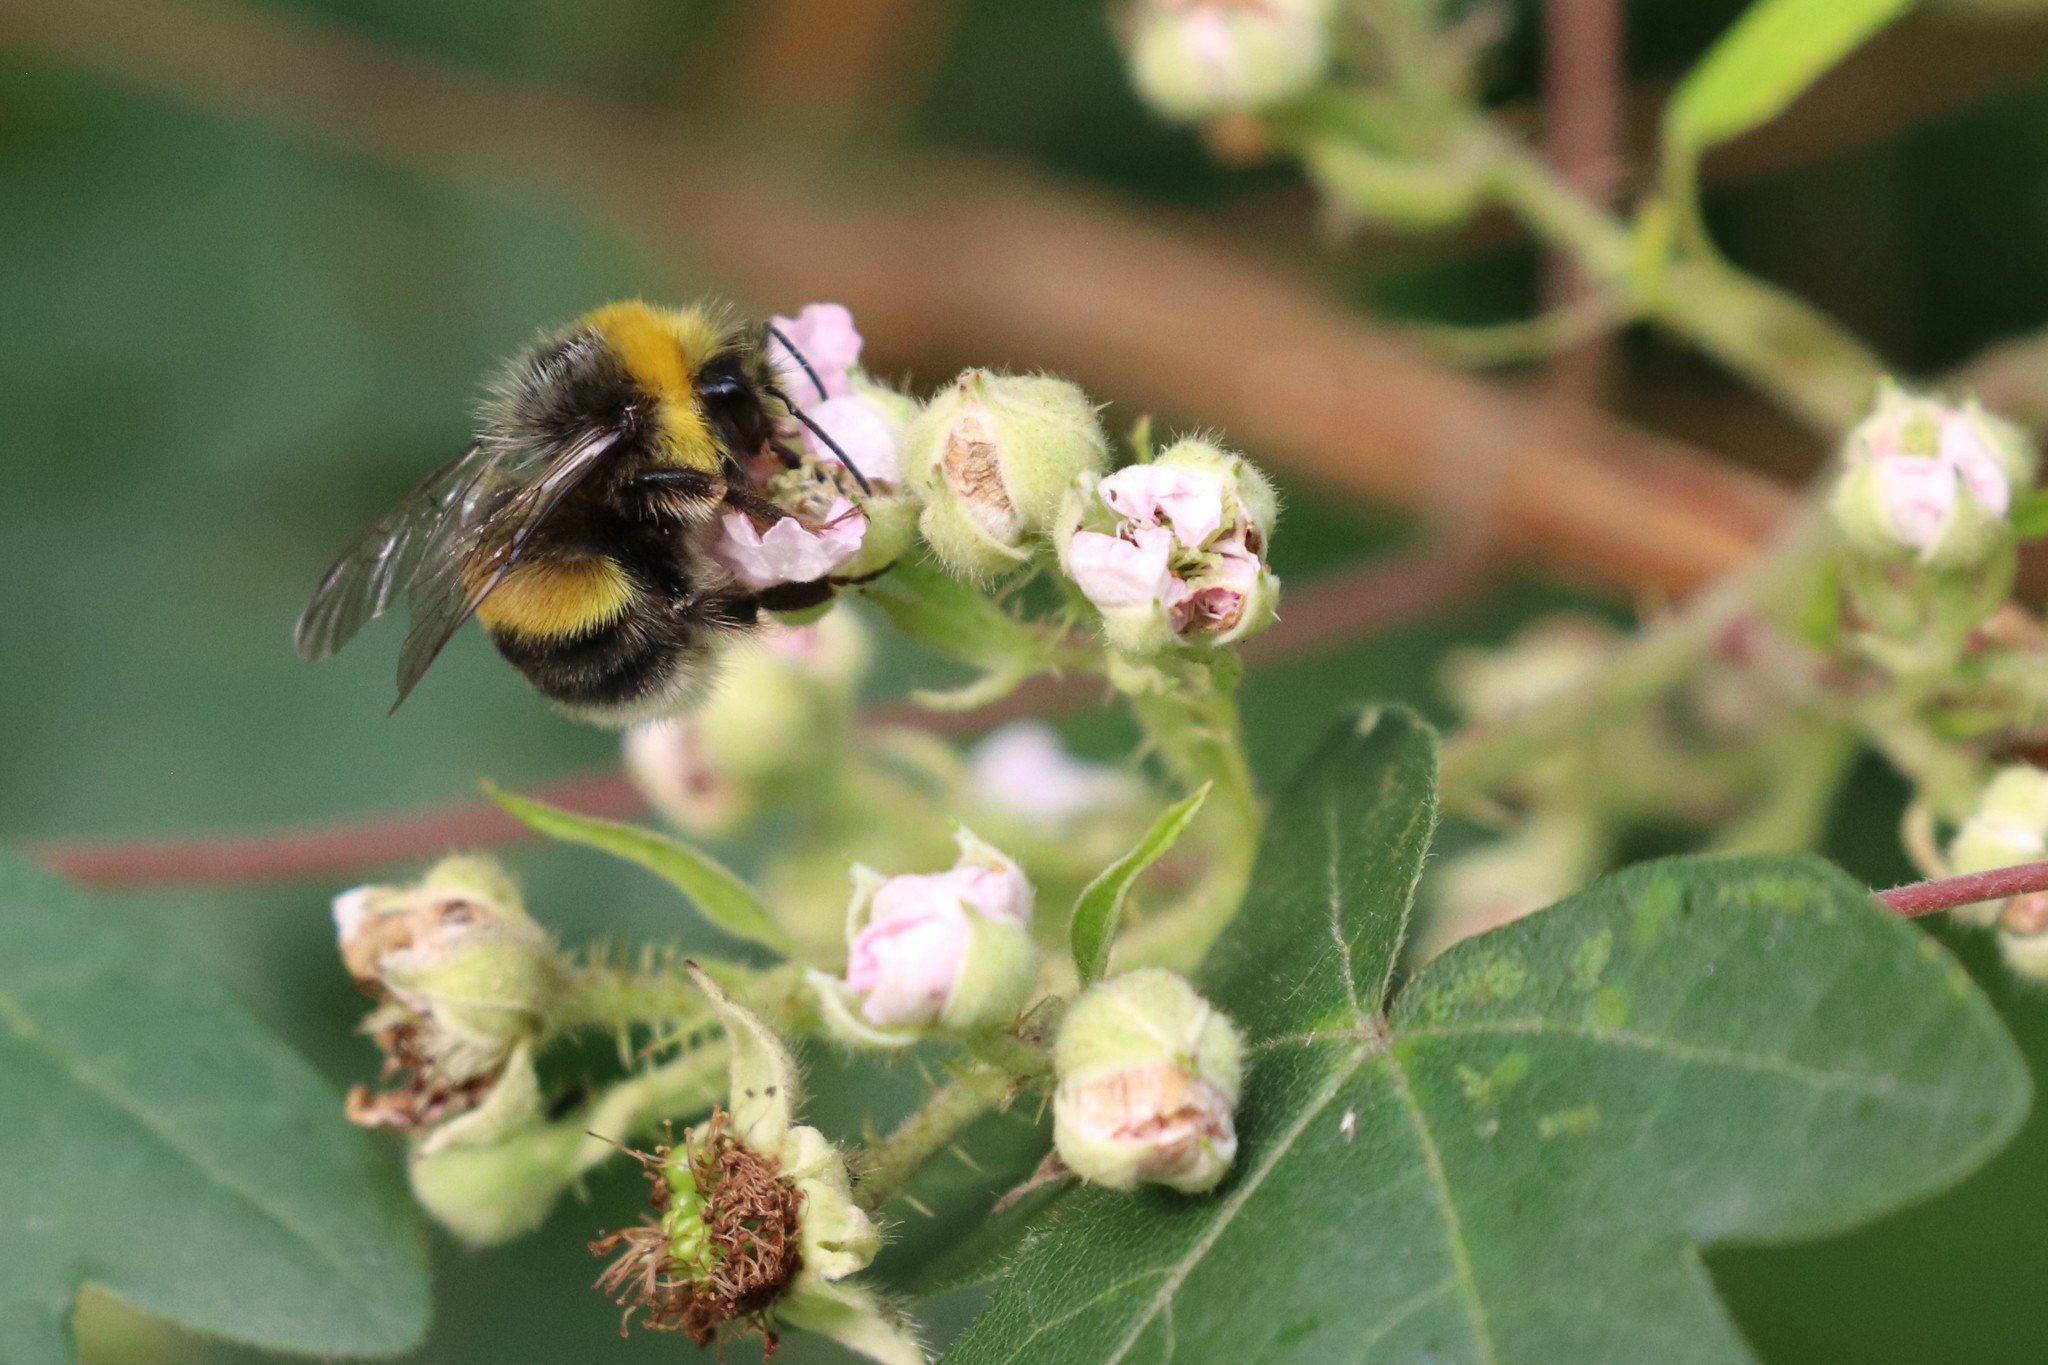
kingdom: Animalia
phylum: Arthropoda
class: Insecta
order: Hymenoptera
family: Apidae
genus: Bombus
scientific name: Bombus lucorum
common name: White-tailed bumblebee
